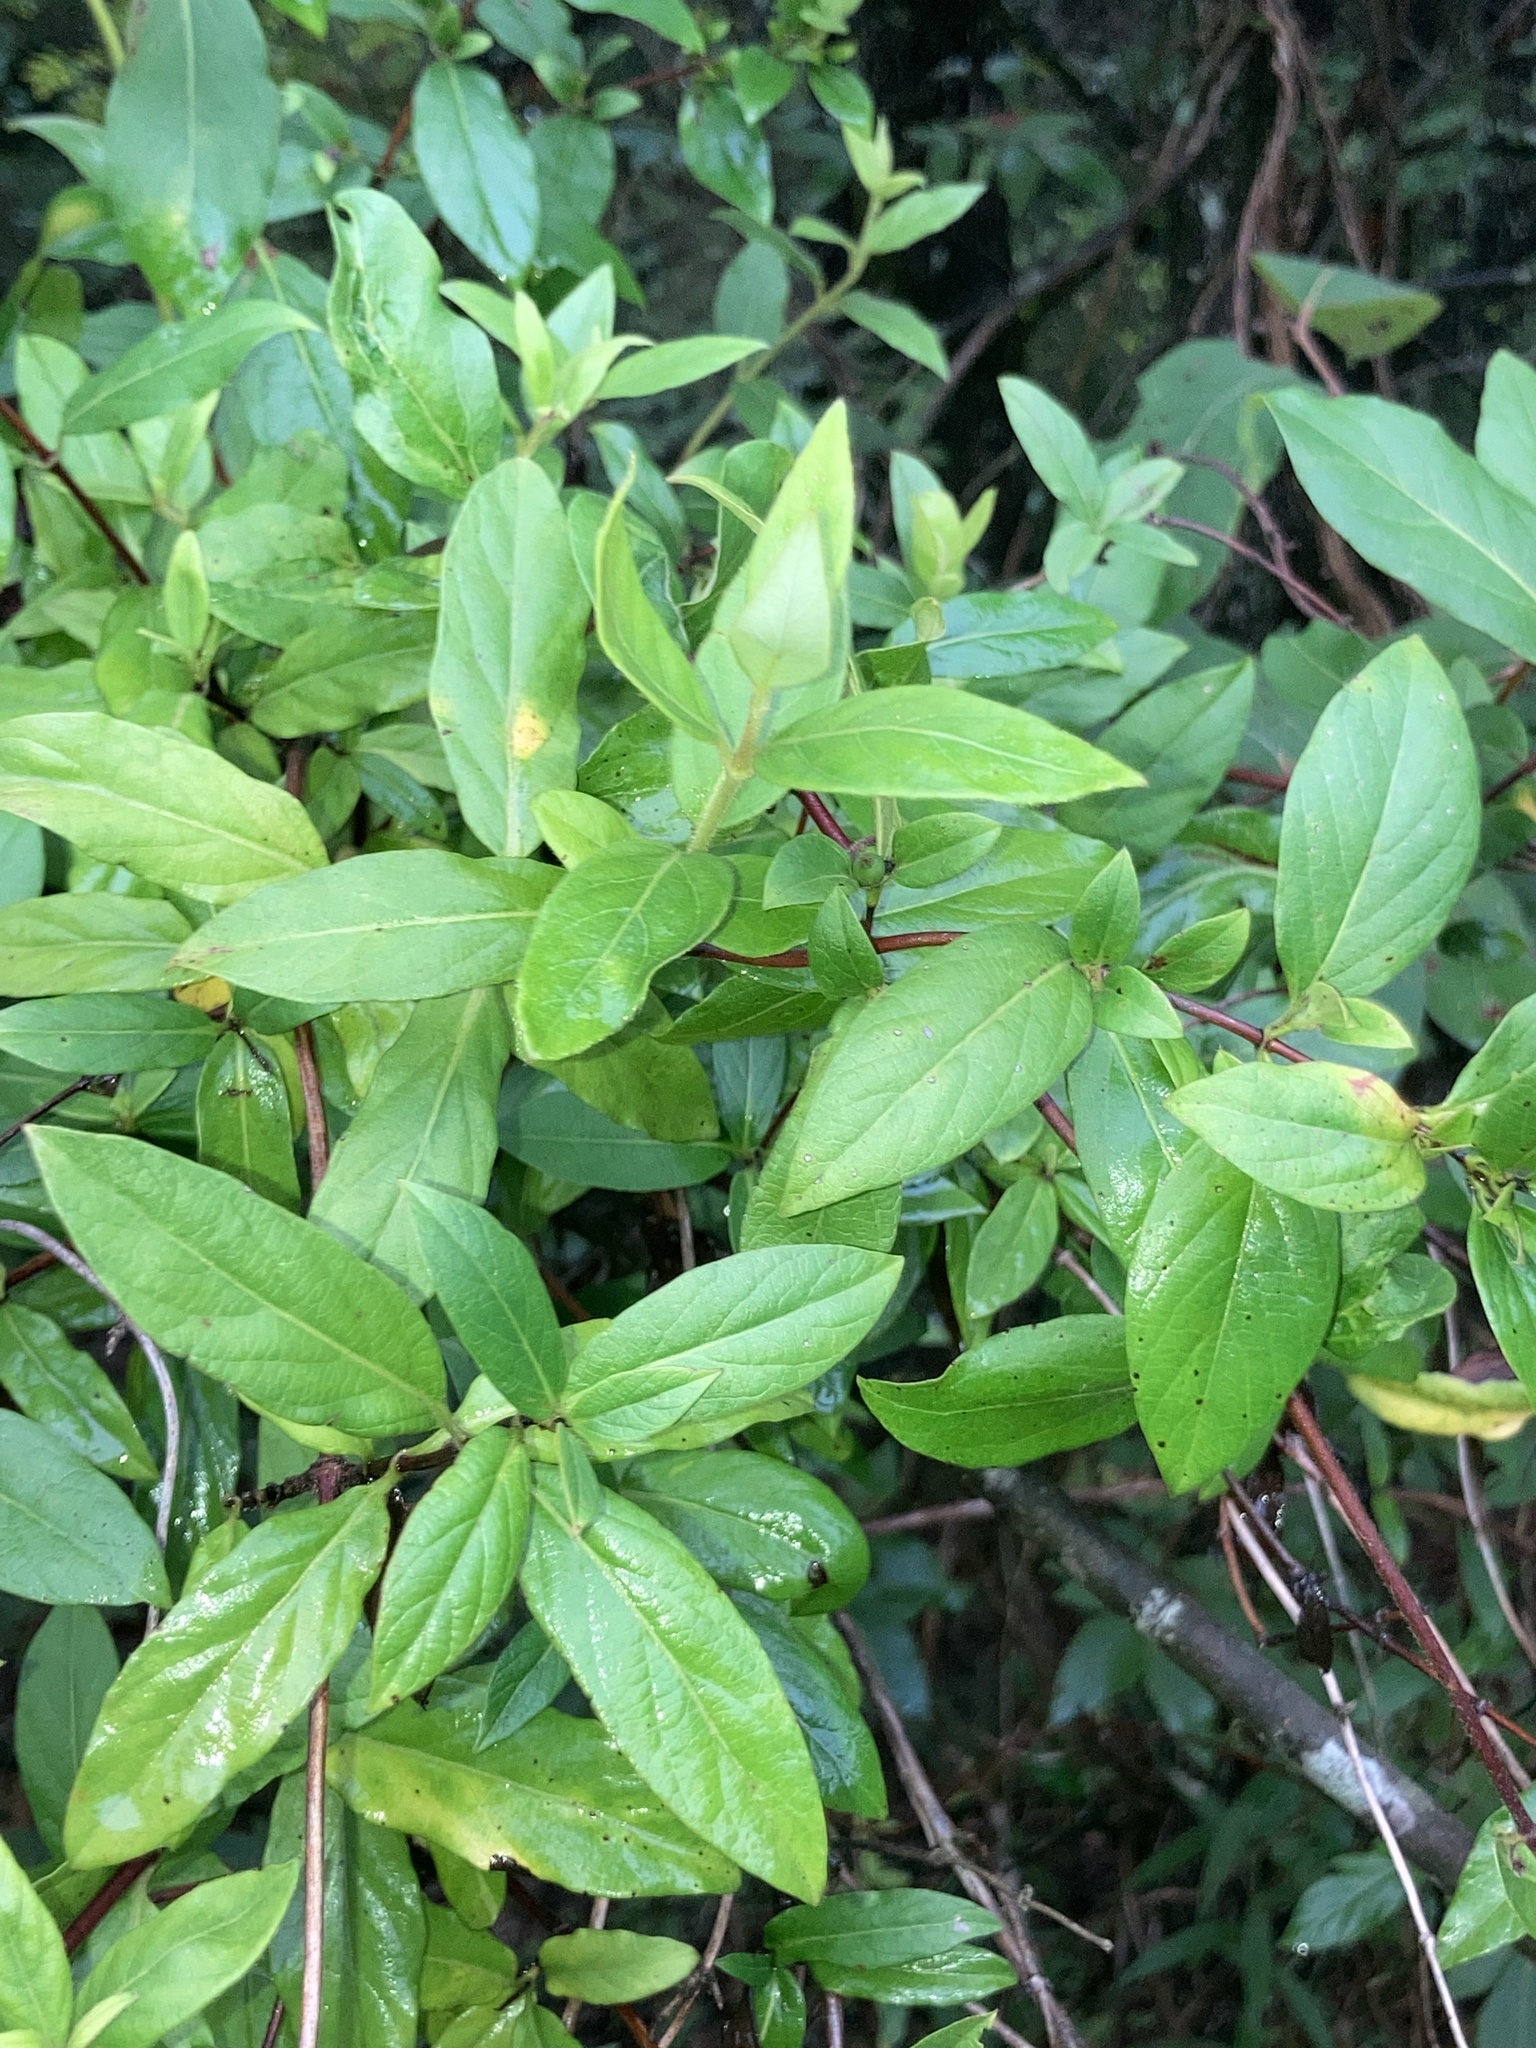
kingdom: Plantae
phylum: Tracheophyta
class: Magnoliopsida
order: Dipsacales
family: Caprifoliaceae
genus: Lonicera
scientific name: Lonicera japonica
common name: Japanese honeysuckle
